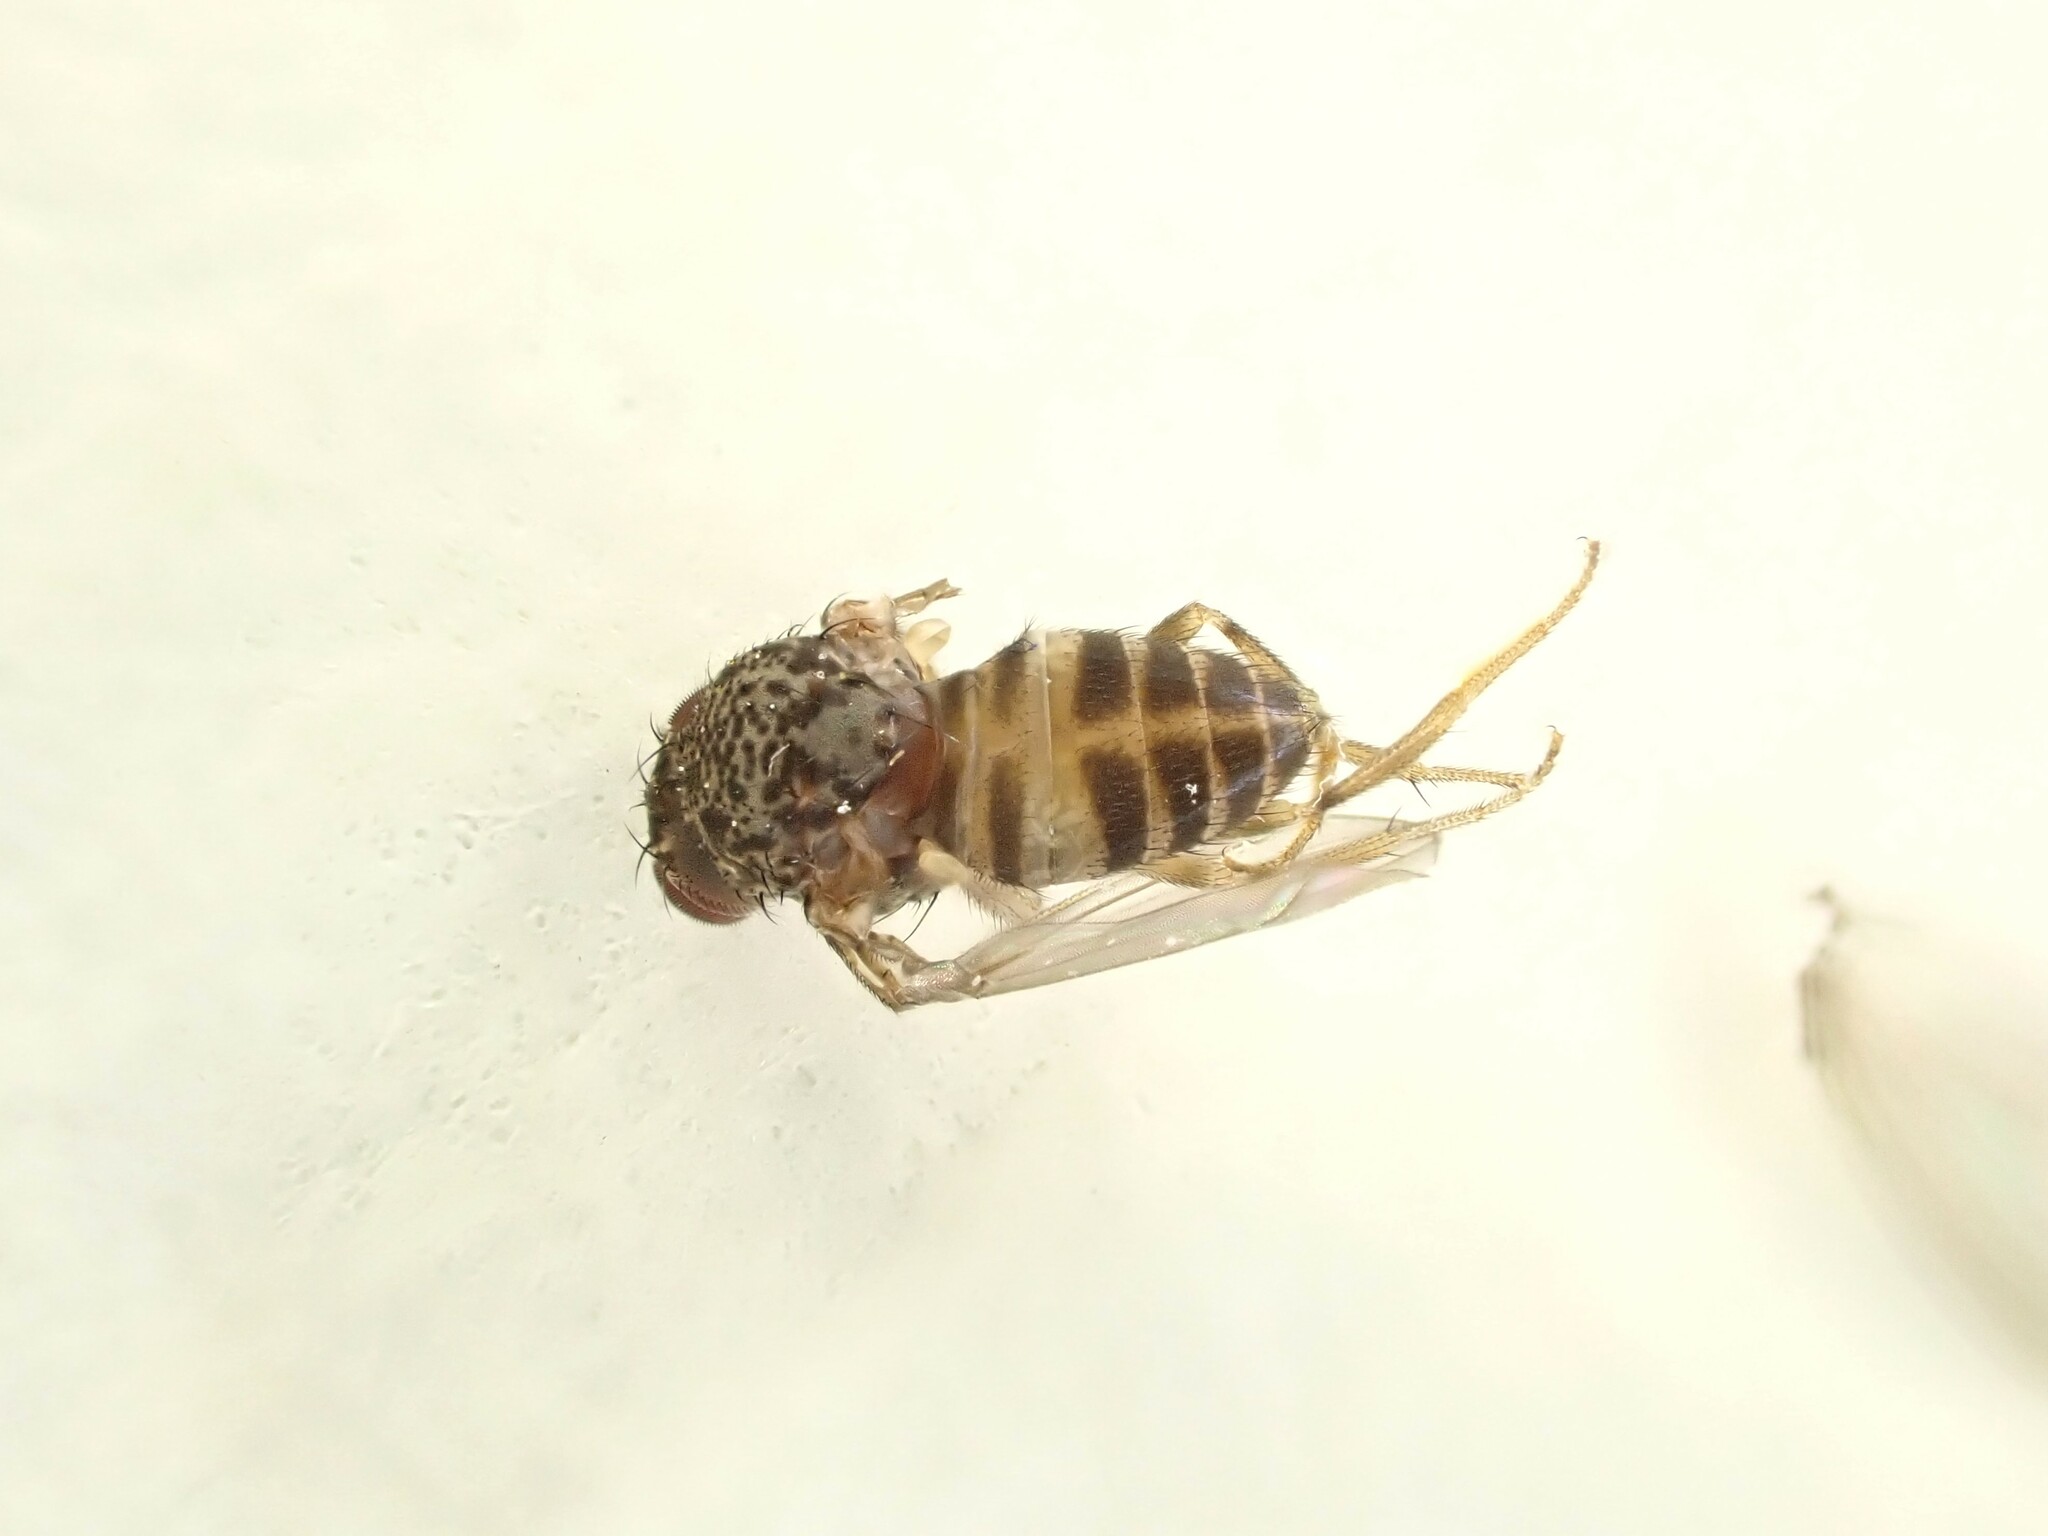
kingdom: Animalia
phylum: Arthropoda
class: Insecta
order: Diptera
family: Drosophilidae
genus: Drosophila
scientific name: Drosophila hydei
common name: Pomace fly
